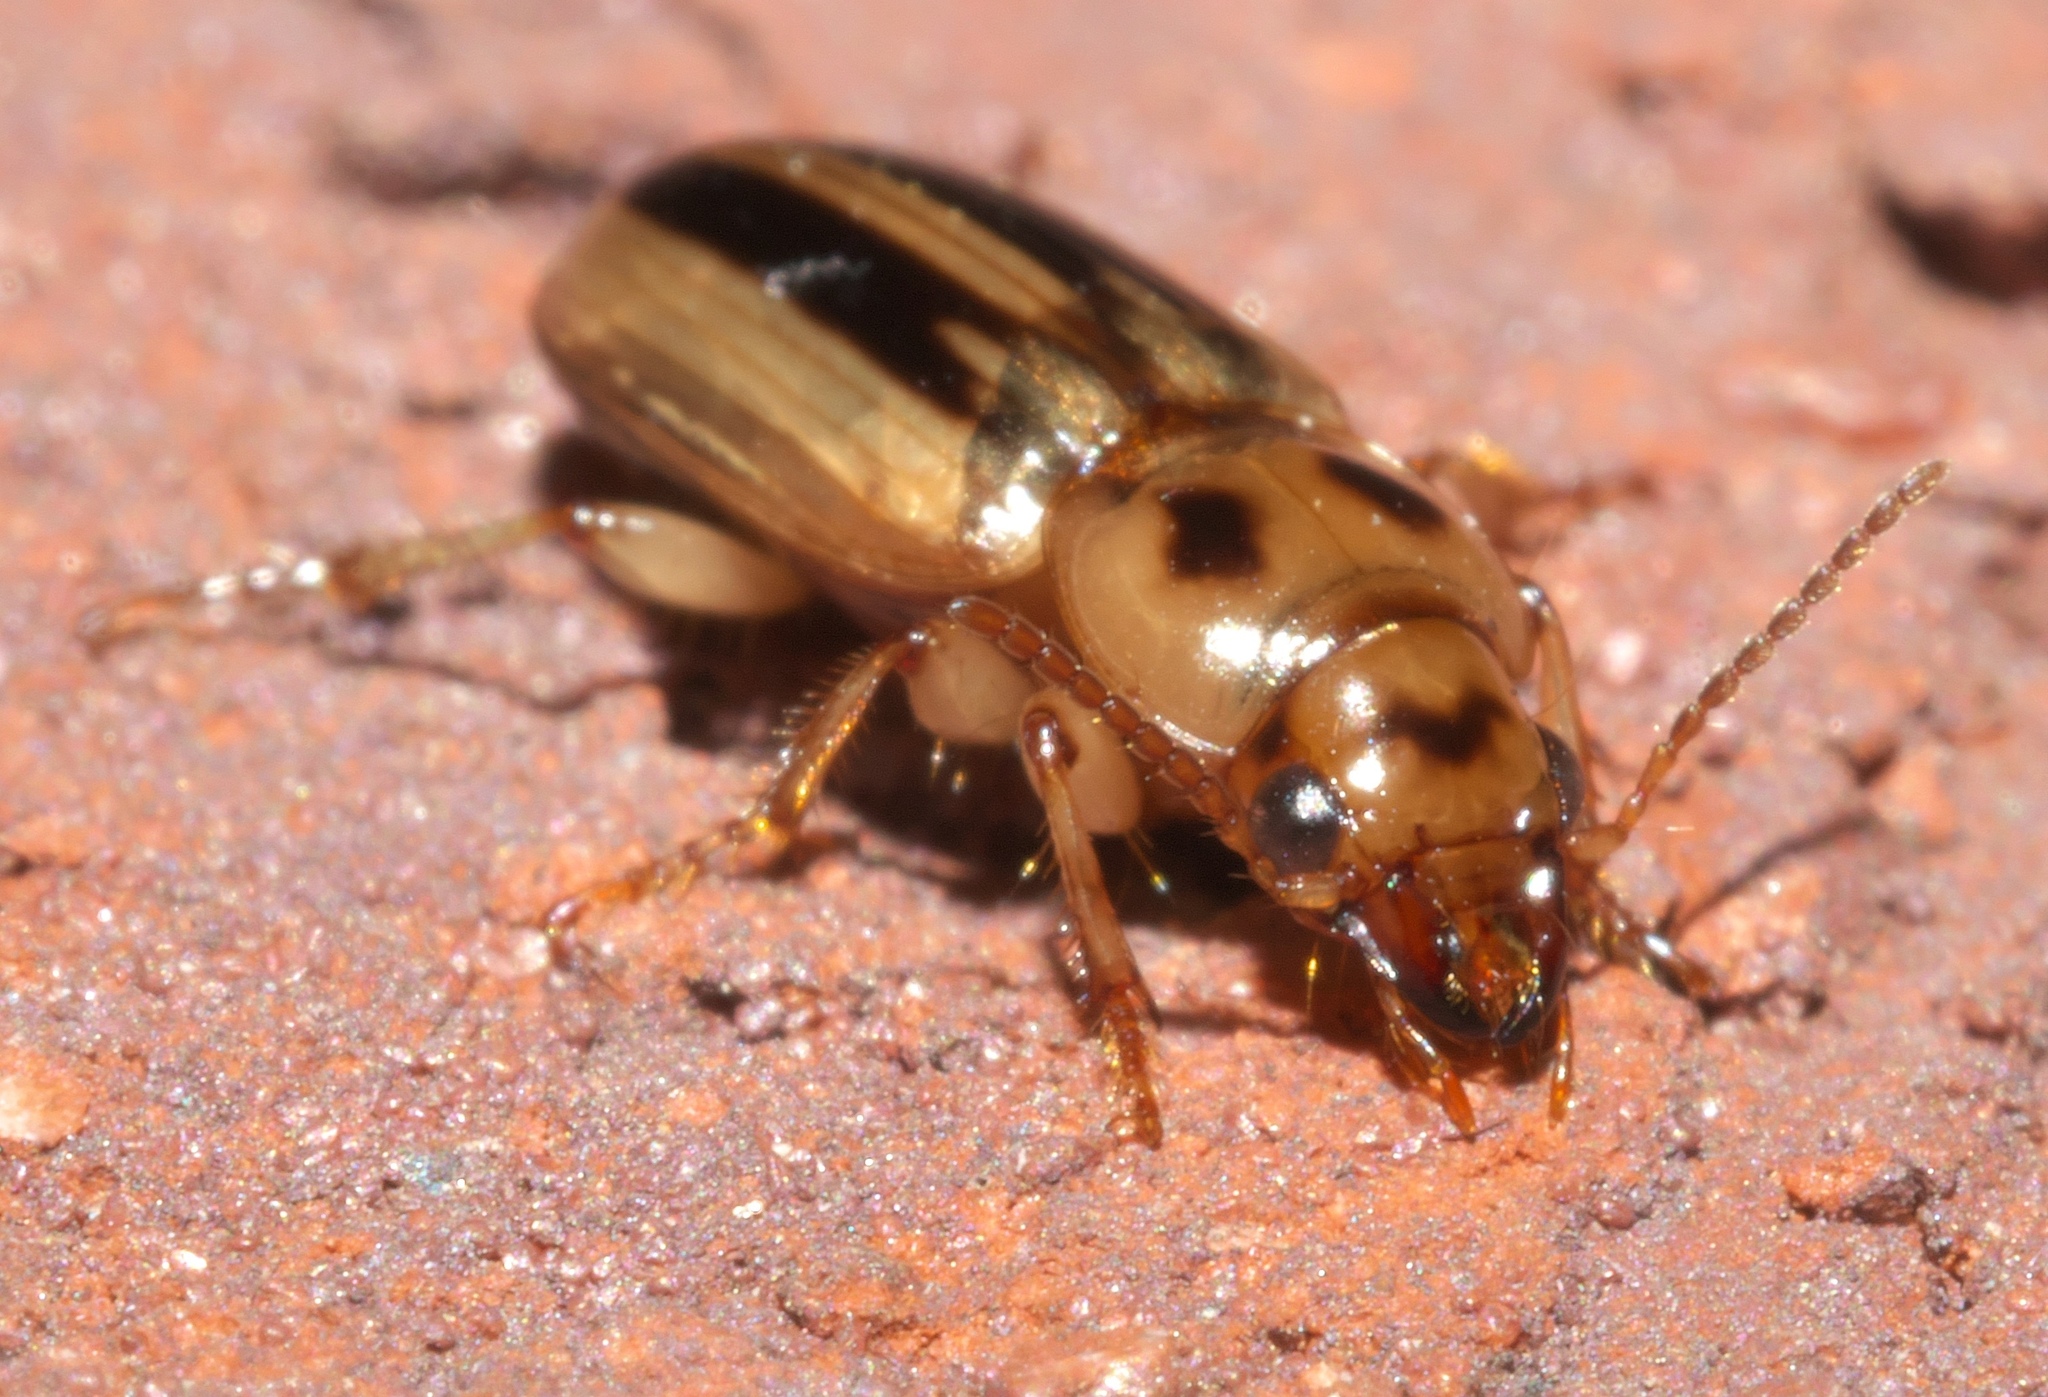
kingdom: Animalia
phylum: Arthropoda
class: Insecta
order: Coleoptera
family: Carabidae
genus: Stenolophus
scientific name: Stenolophus lineola
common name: Lined stenolophus
